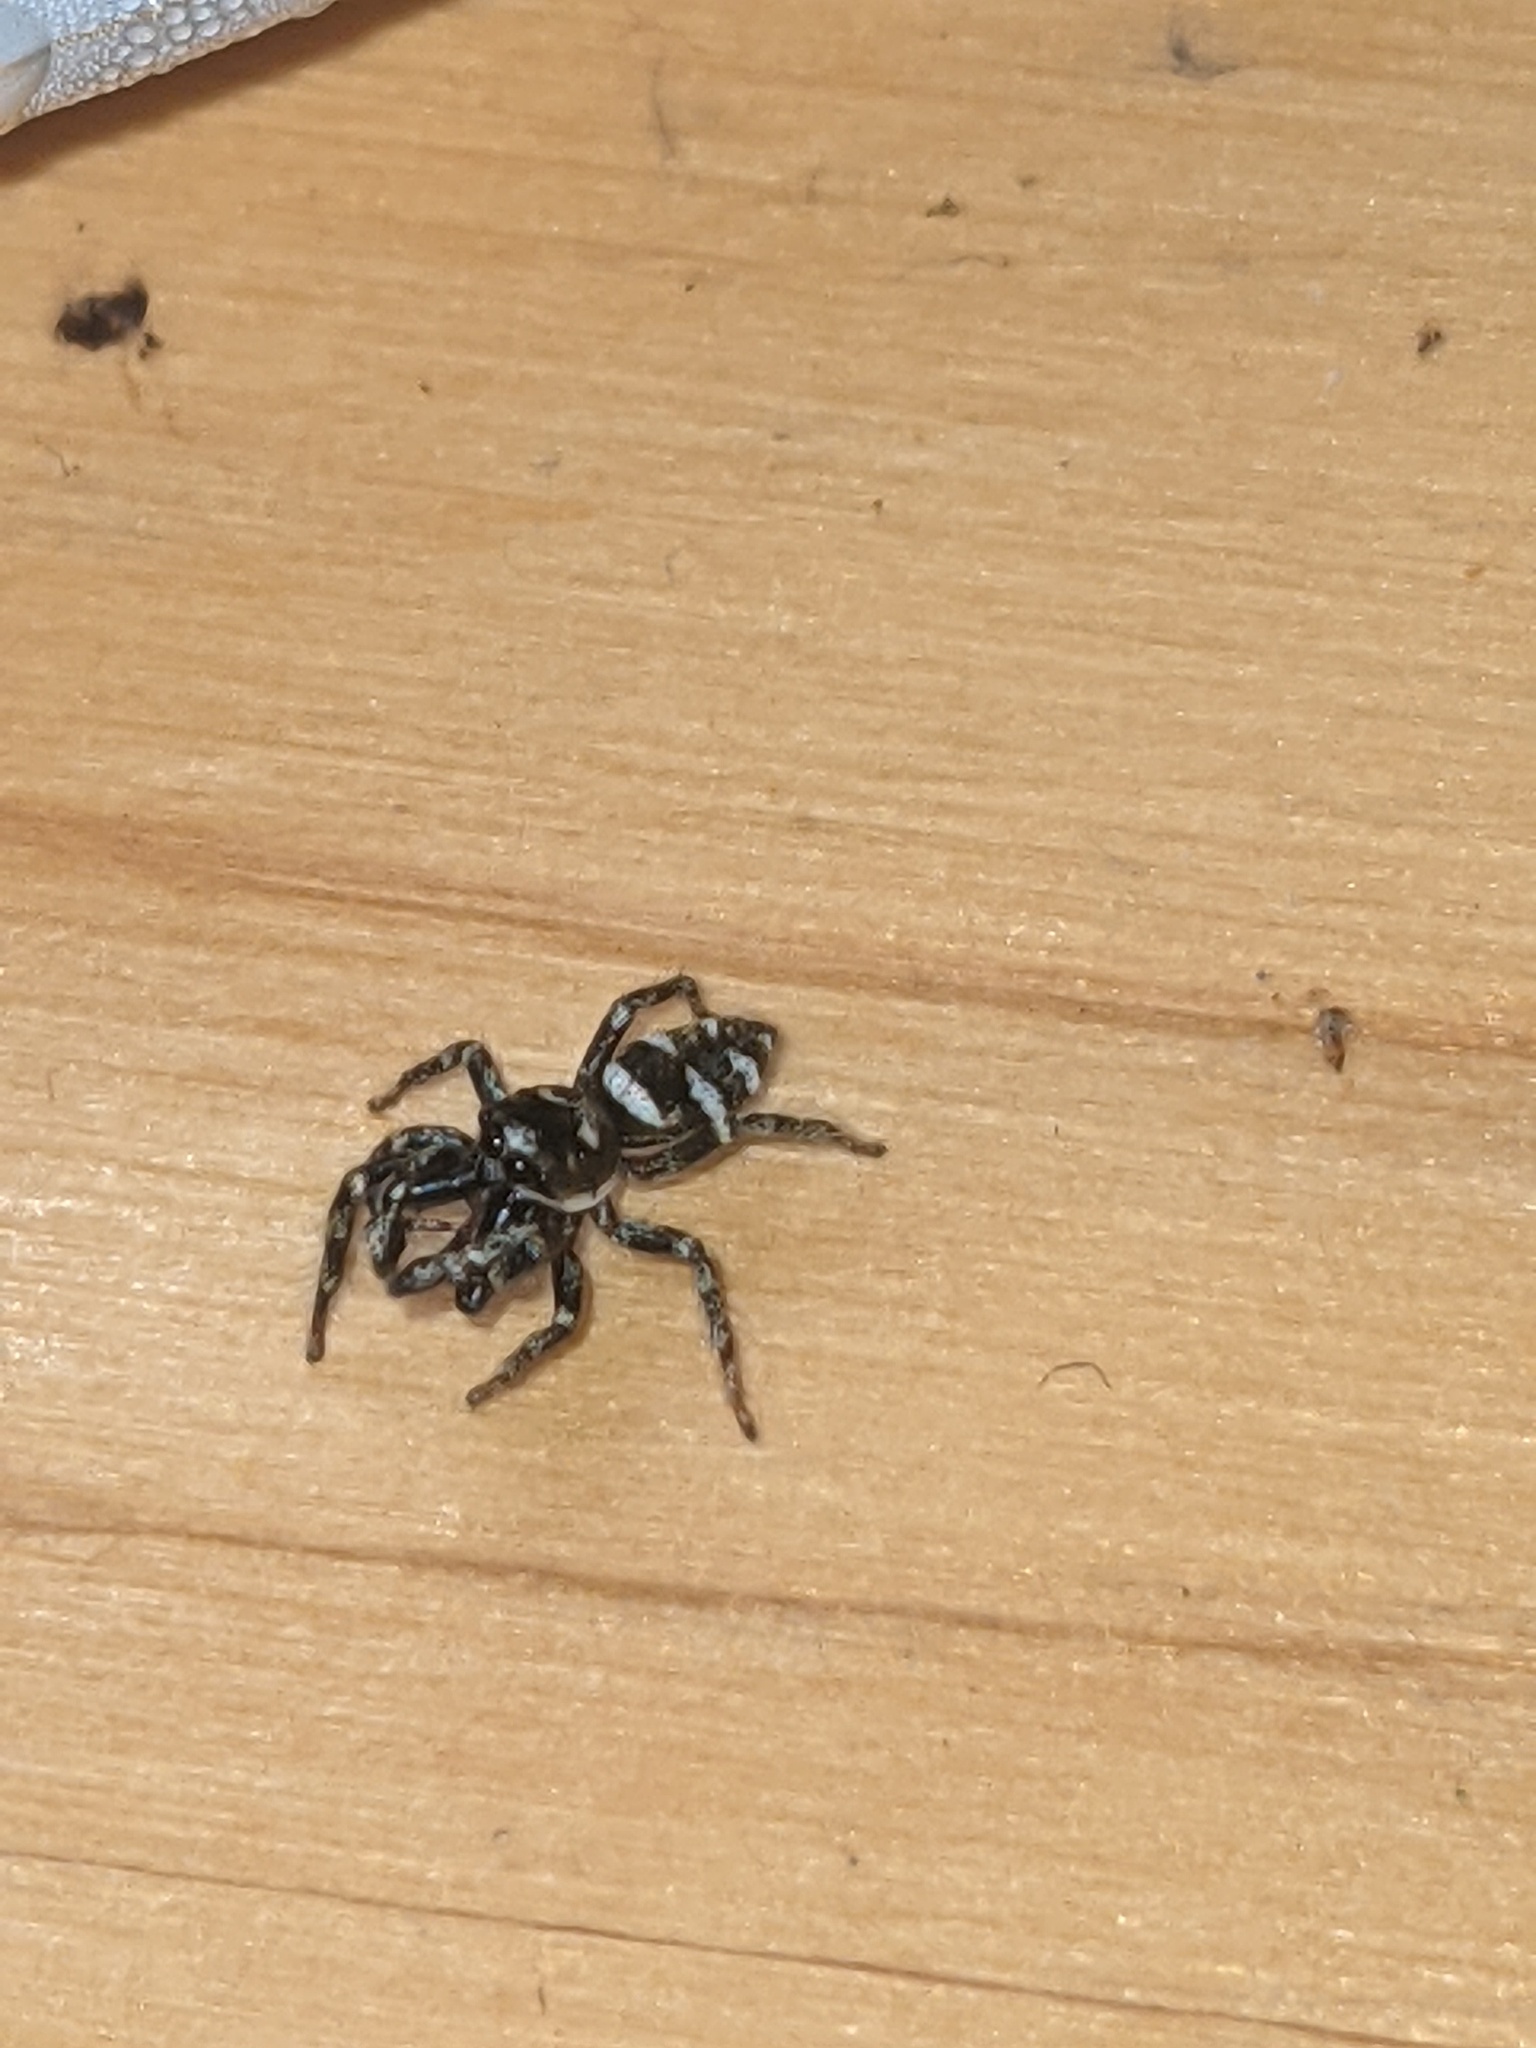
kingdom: Animalia
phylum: Arthropoda
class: Arachnida
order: Araneae
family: Salticidae
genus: Salticus
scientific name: Salticus scenicus
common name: Zebra jumper
